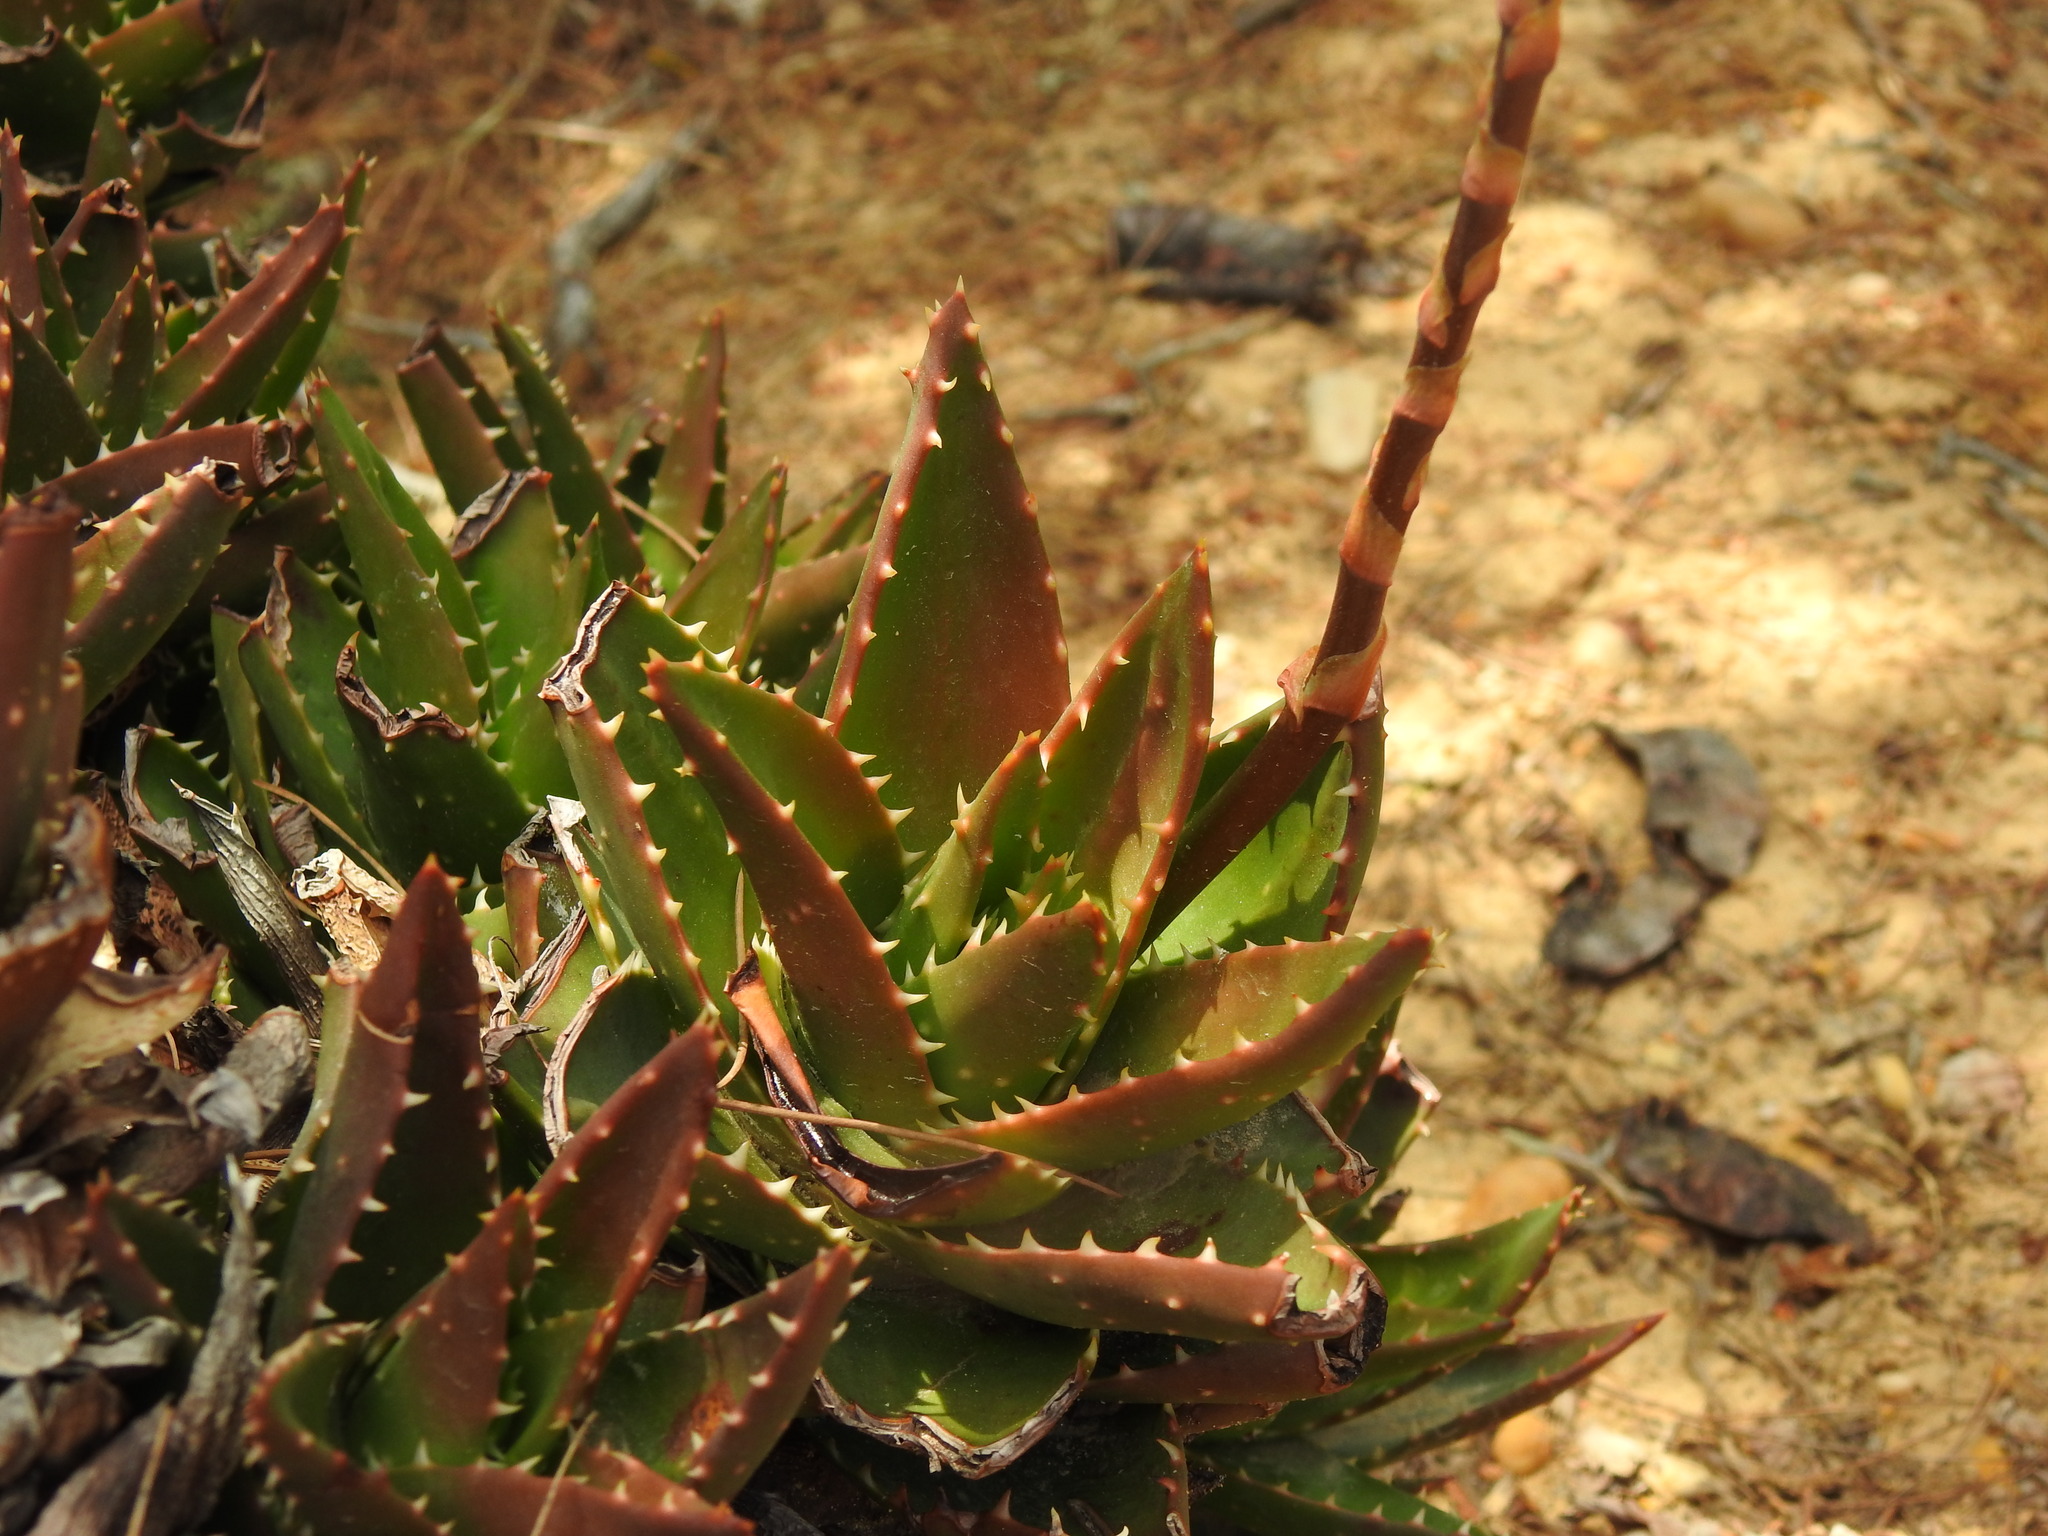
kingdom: Plantae
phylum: Tracheophyta
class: Liliopsida
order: Asparagales
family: Asphodelaceae
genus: Aloe
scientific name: Aloe nobilis
